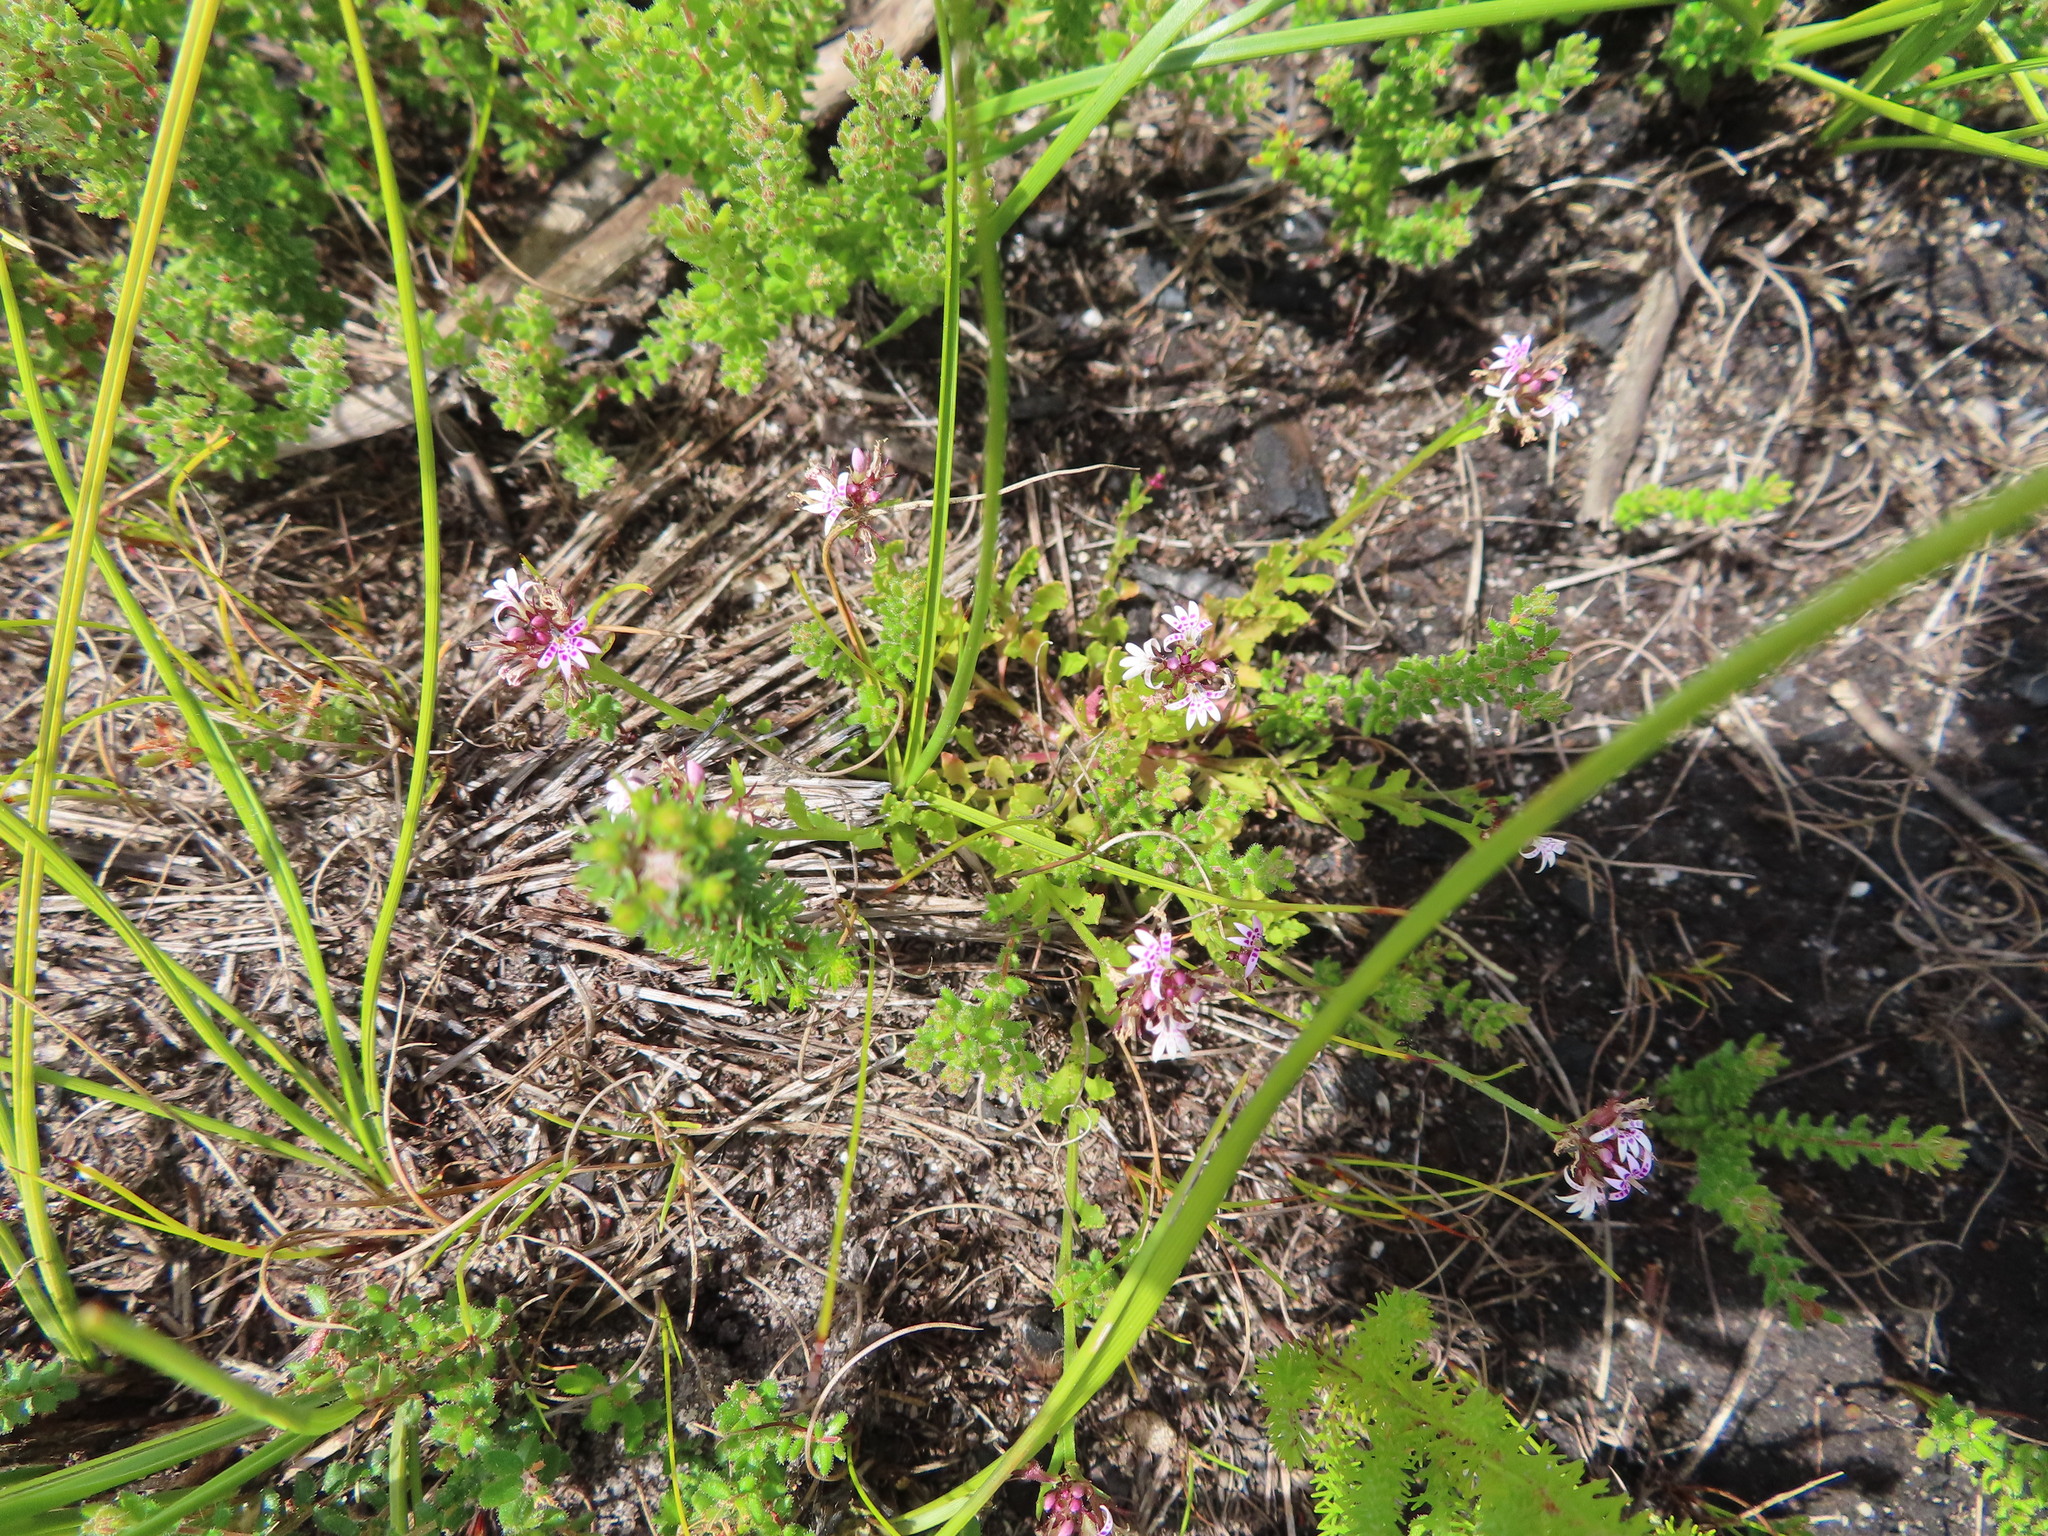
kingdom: Plantae
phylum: Tracheophyta
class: Magnoliopsida
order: Asterales
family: Campanulaceae
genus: Lobelia
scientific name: Lobelia jasionoides
